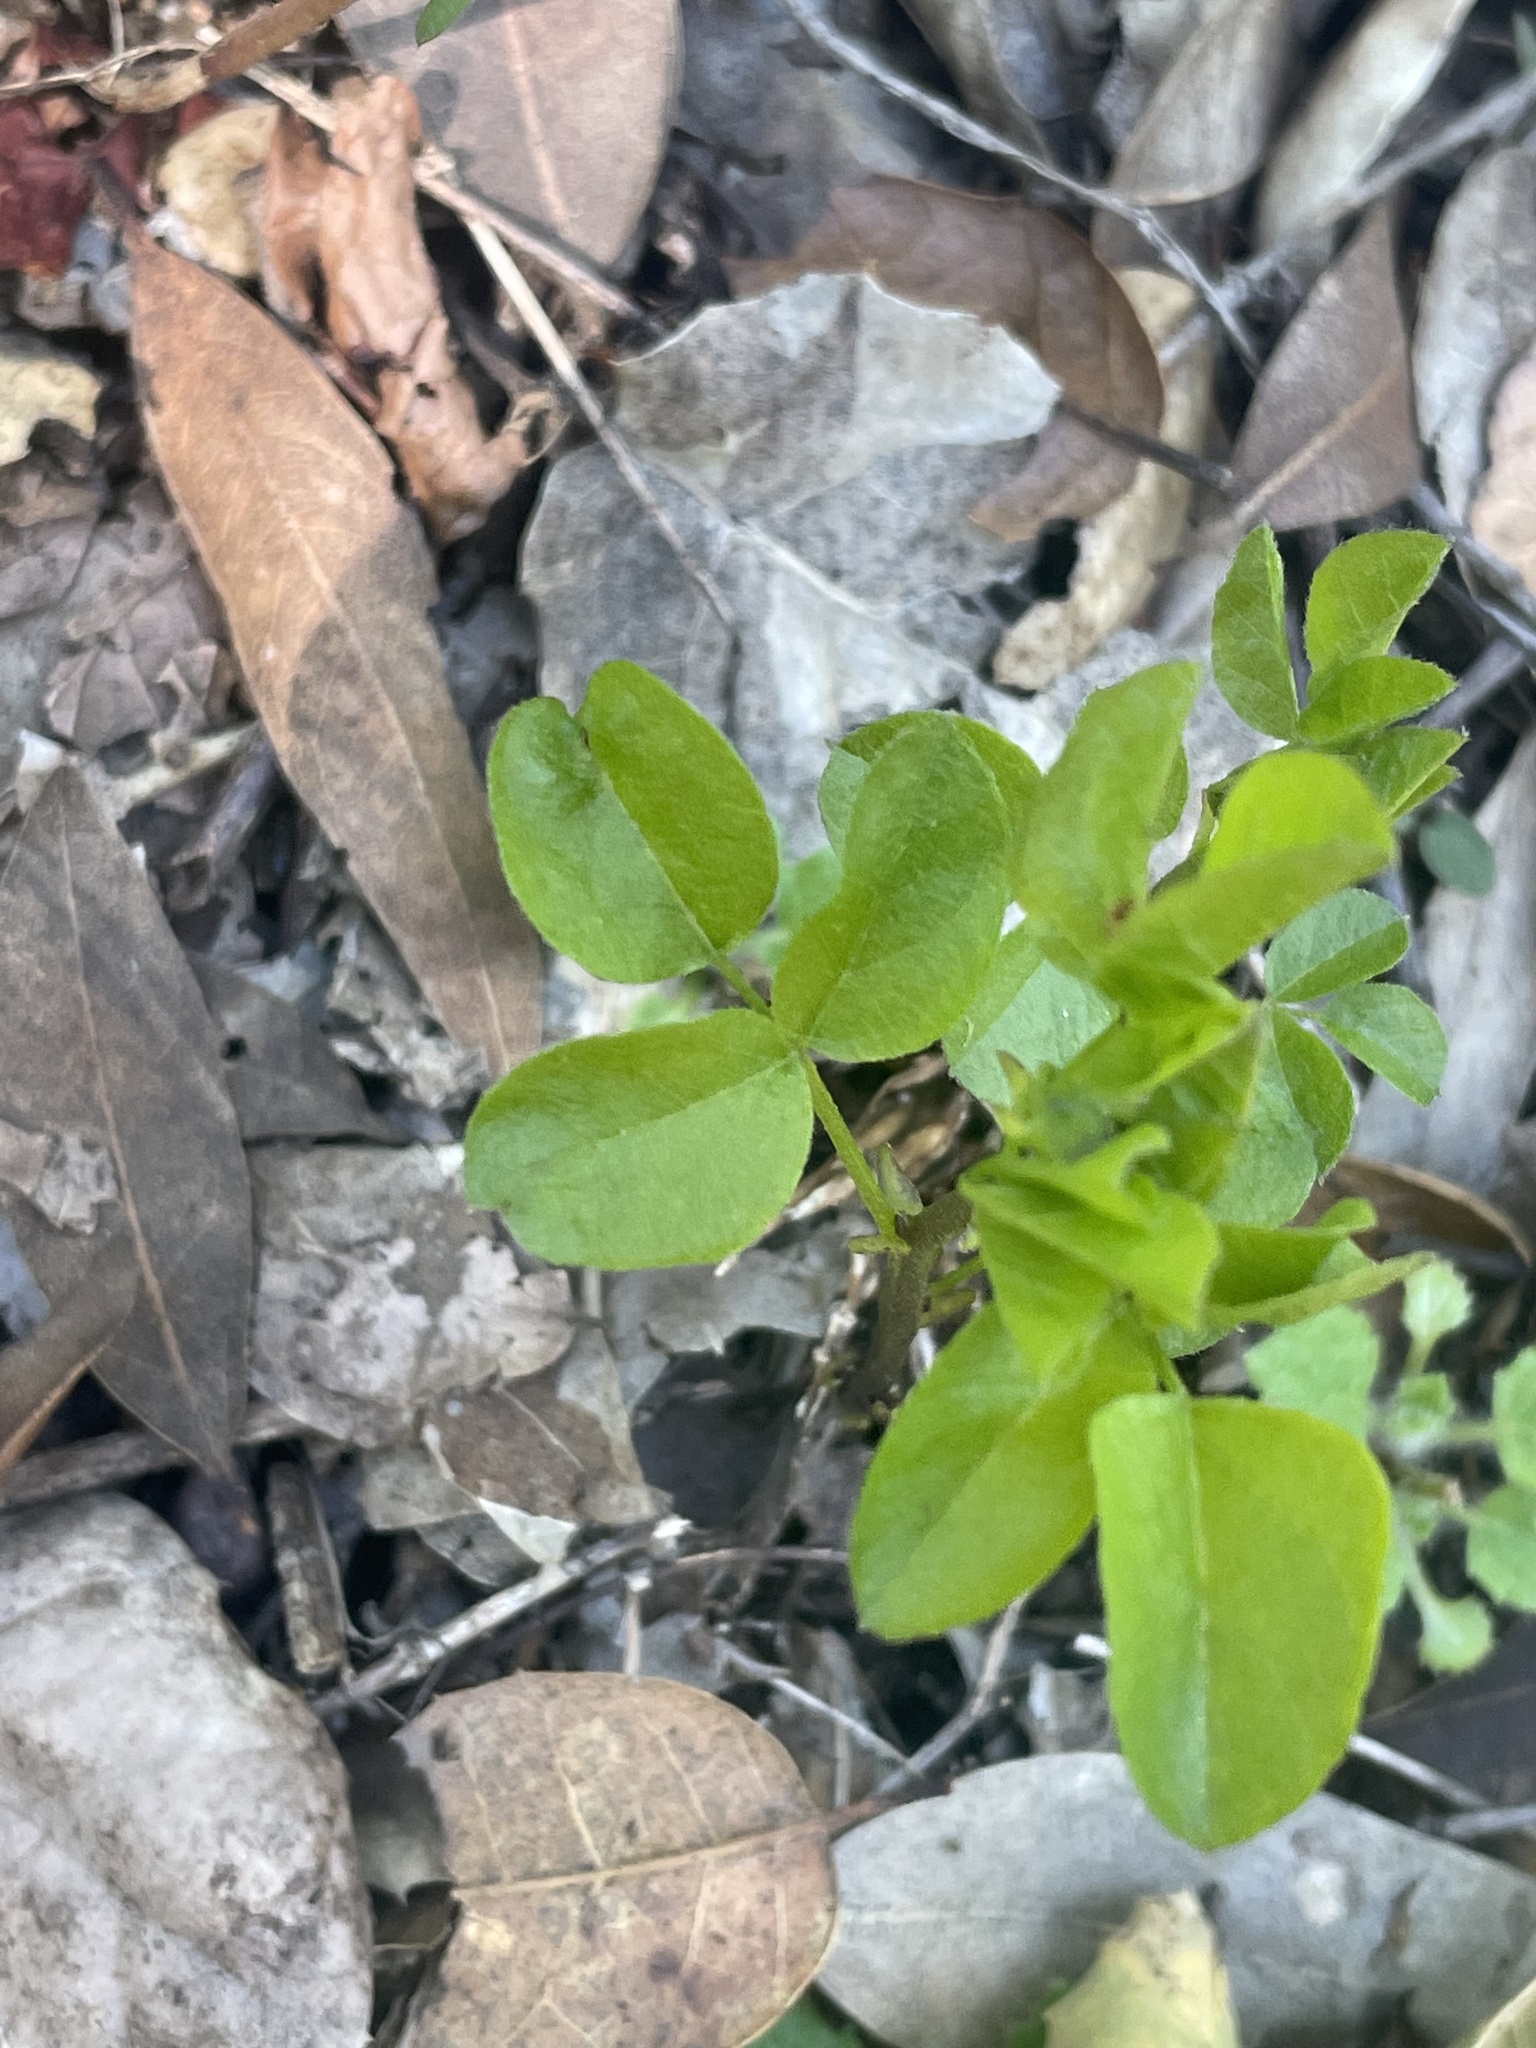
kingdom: Plantae
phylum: Tracheophyta
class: Magnoliopsida
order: Fabales
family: Fabaceae
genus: Rupertia
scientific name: Rupertia physodes
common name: California-tea
